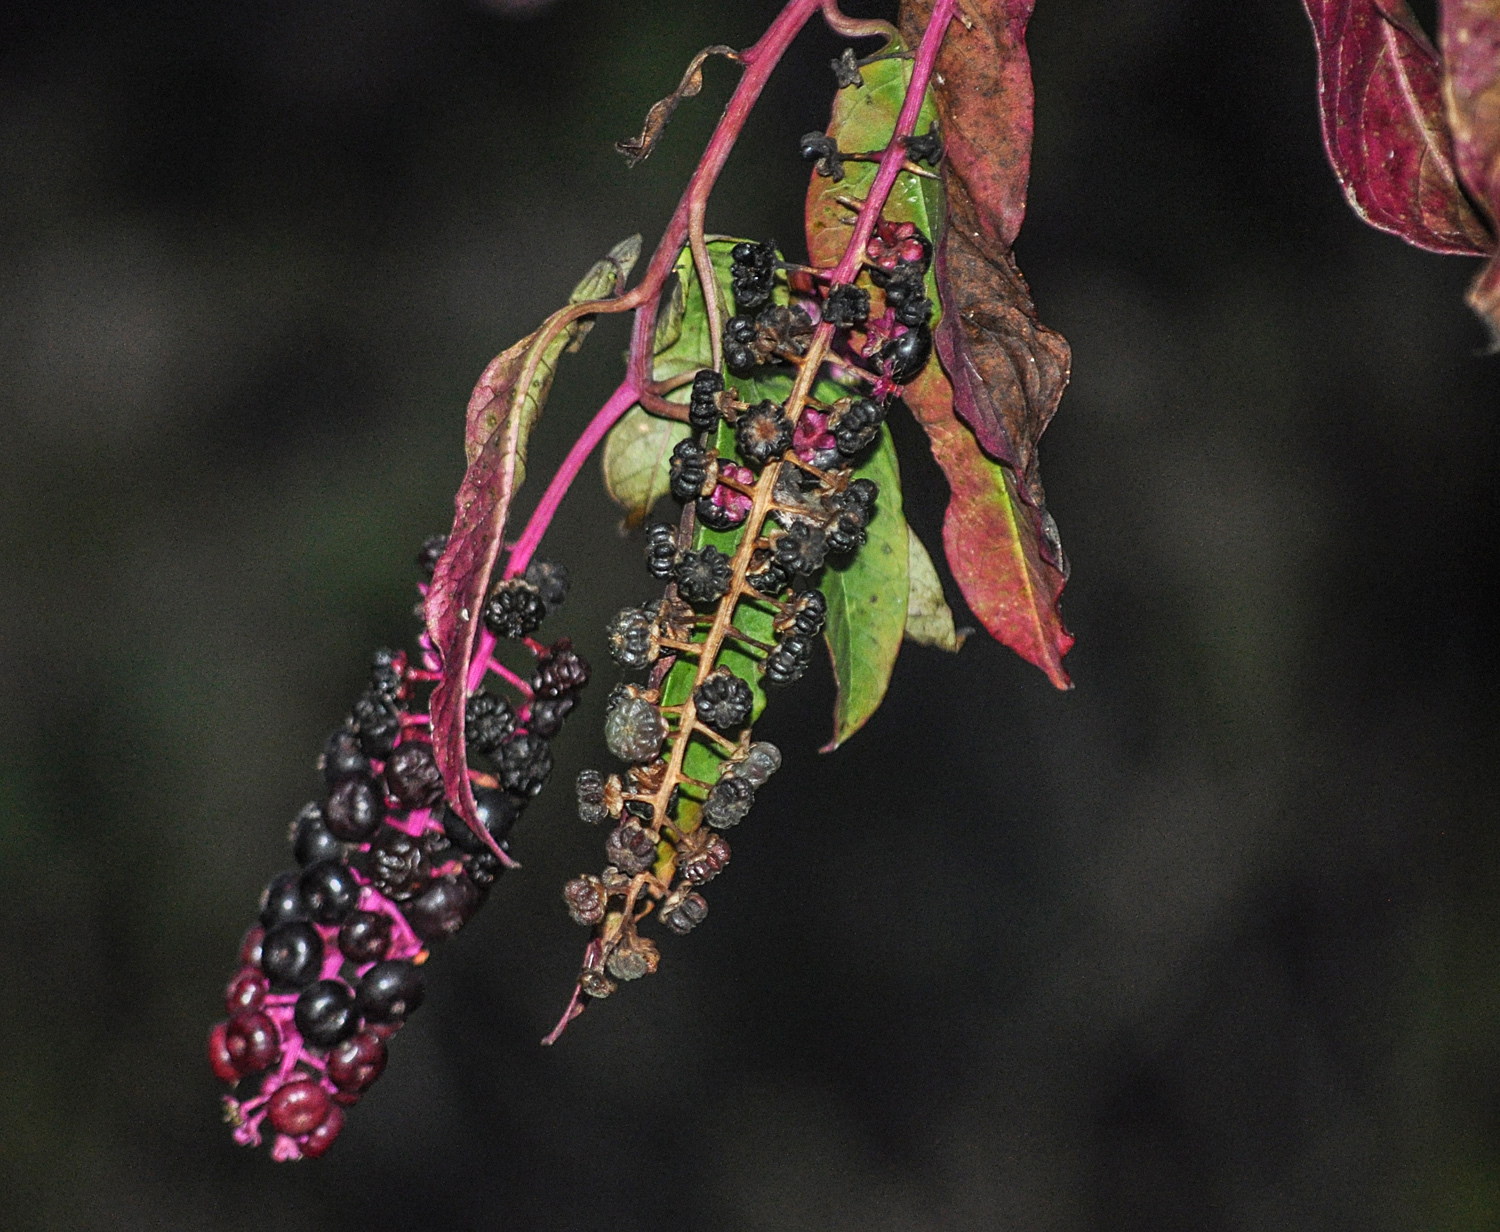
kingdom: Plantae
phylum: Tracheophyta
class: Magnoliopsida
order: Caryophyllales
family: Phytolaccaceae
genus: Phytolacca
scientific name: Phytolacca americana
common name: American pokeweed
